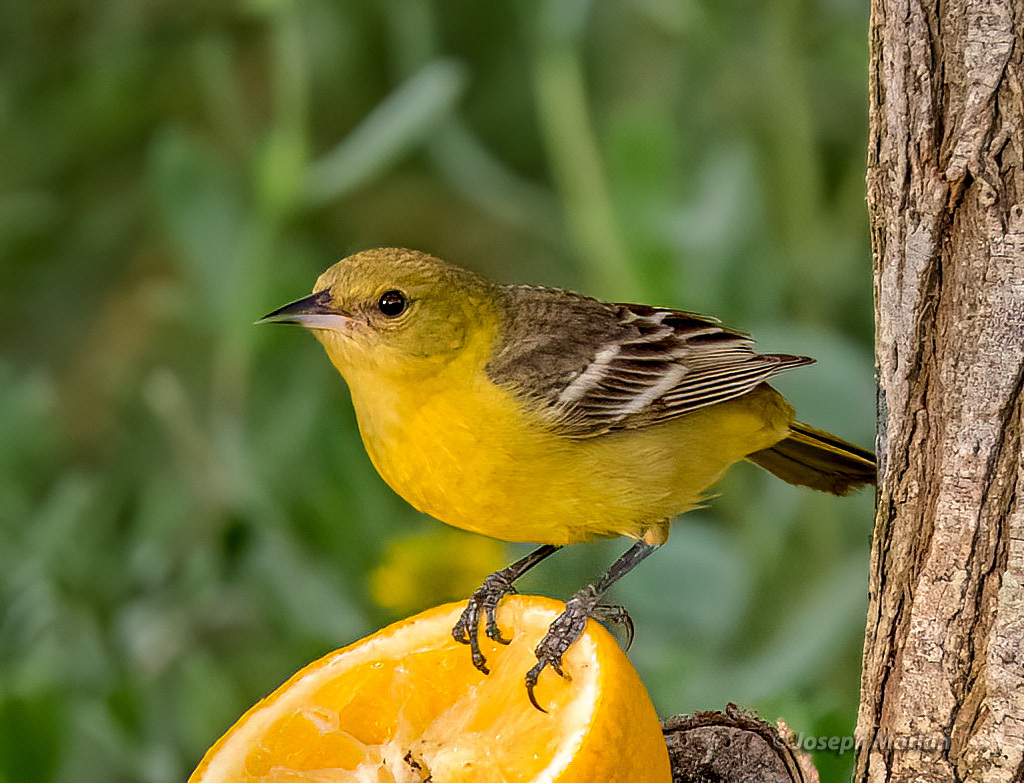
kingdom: Animalia
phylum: Chordata
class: Aves
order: Passeriformes
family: Icteridae
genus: Icterus
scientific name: Icterus spurius
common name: Orchard oriole
